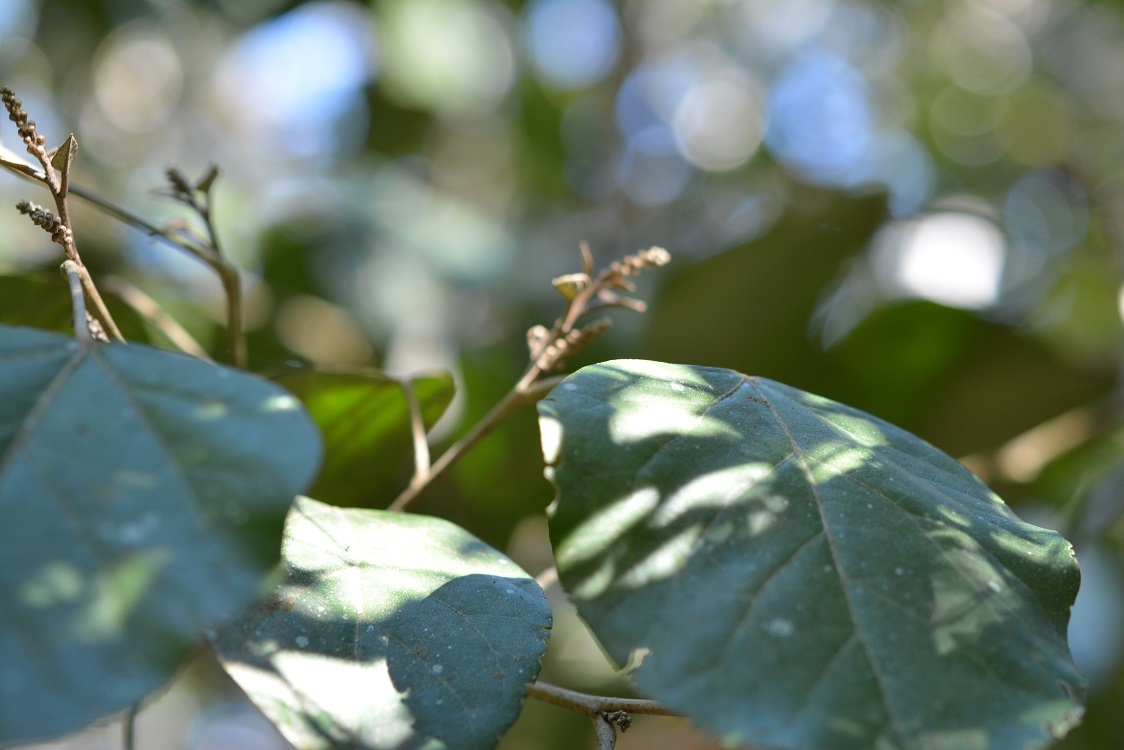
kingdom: Plantae
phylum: Tracheophyta
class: Magnoliopsida
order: Malpighiales
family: Euphorbiaceae
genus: Croton
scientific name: Croton guatemalensis
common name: Copalchi
